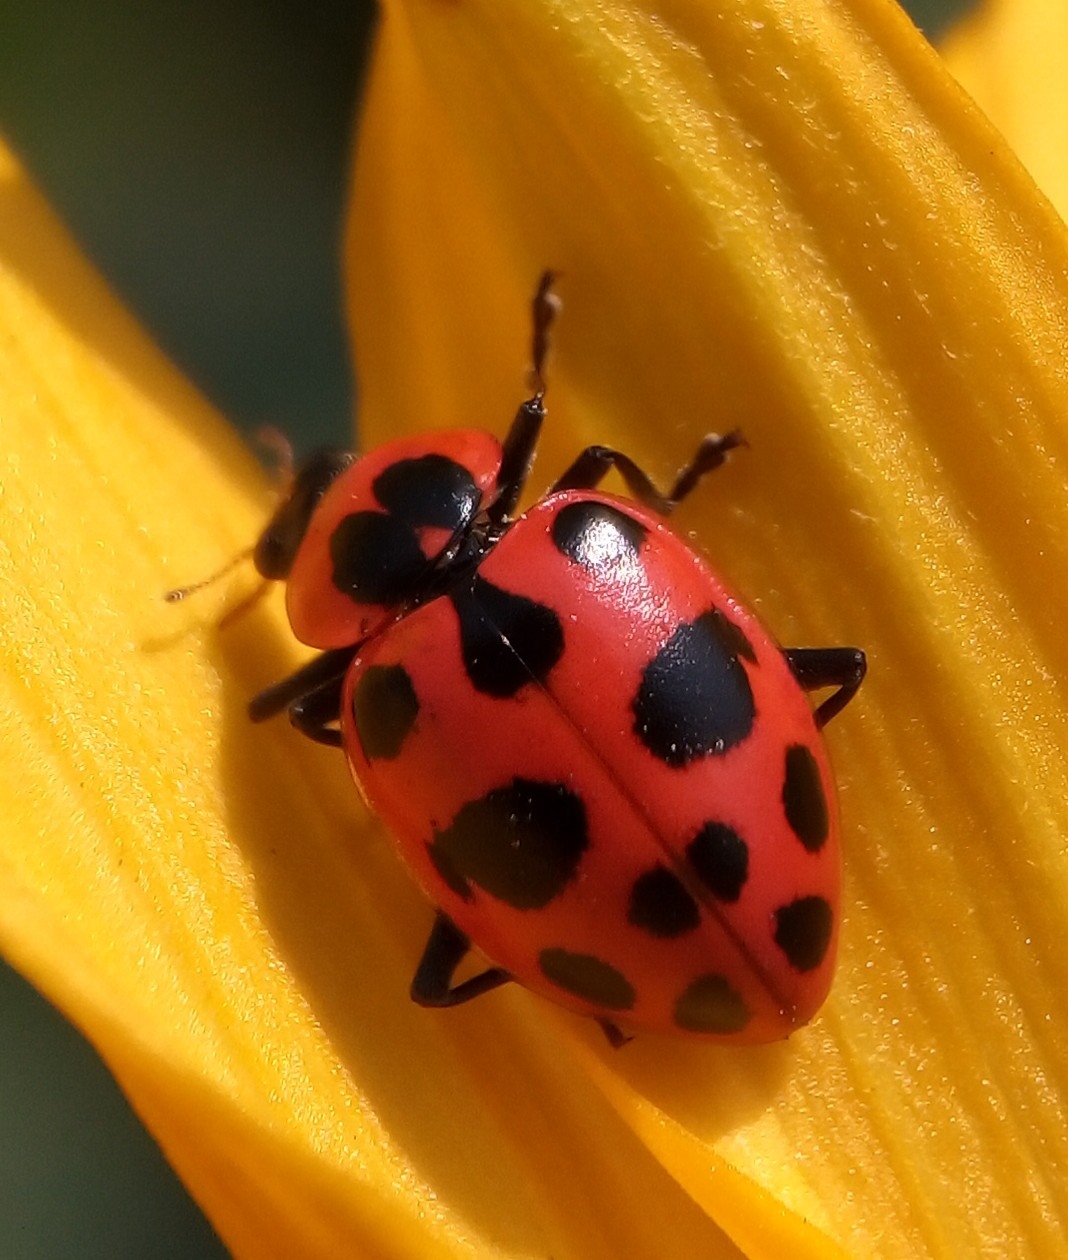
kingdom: Animalia
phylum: Arthropoda
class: Insecta
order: Coleoptera
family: Coccinellidae
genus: Coleomegilla
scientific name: Coleomegilla maculata
